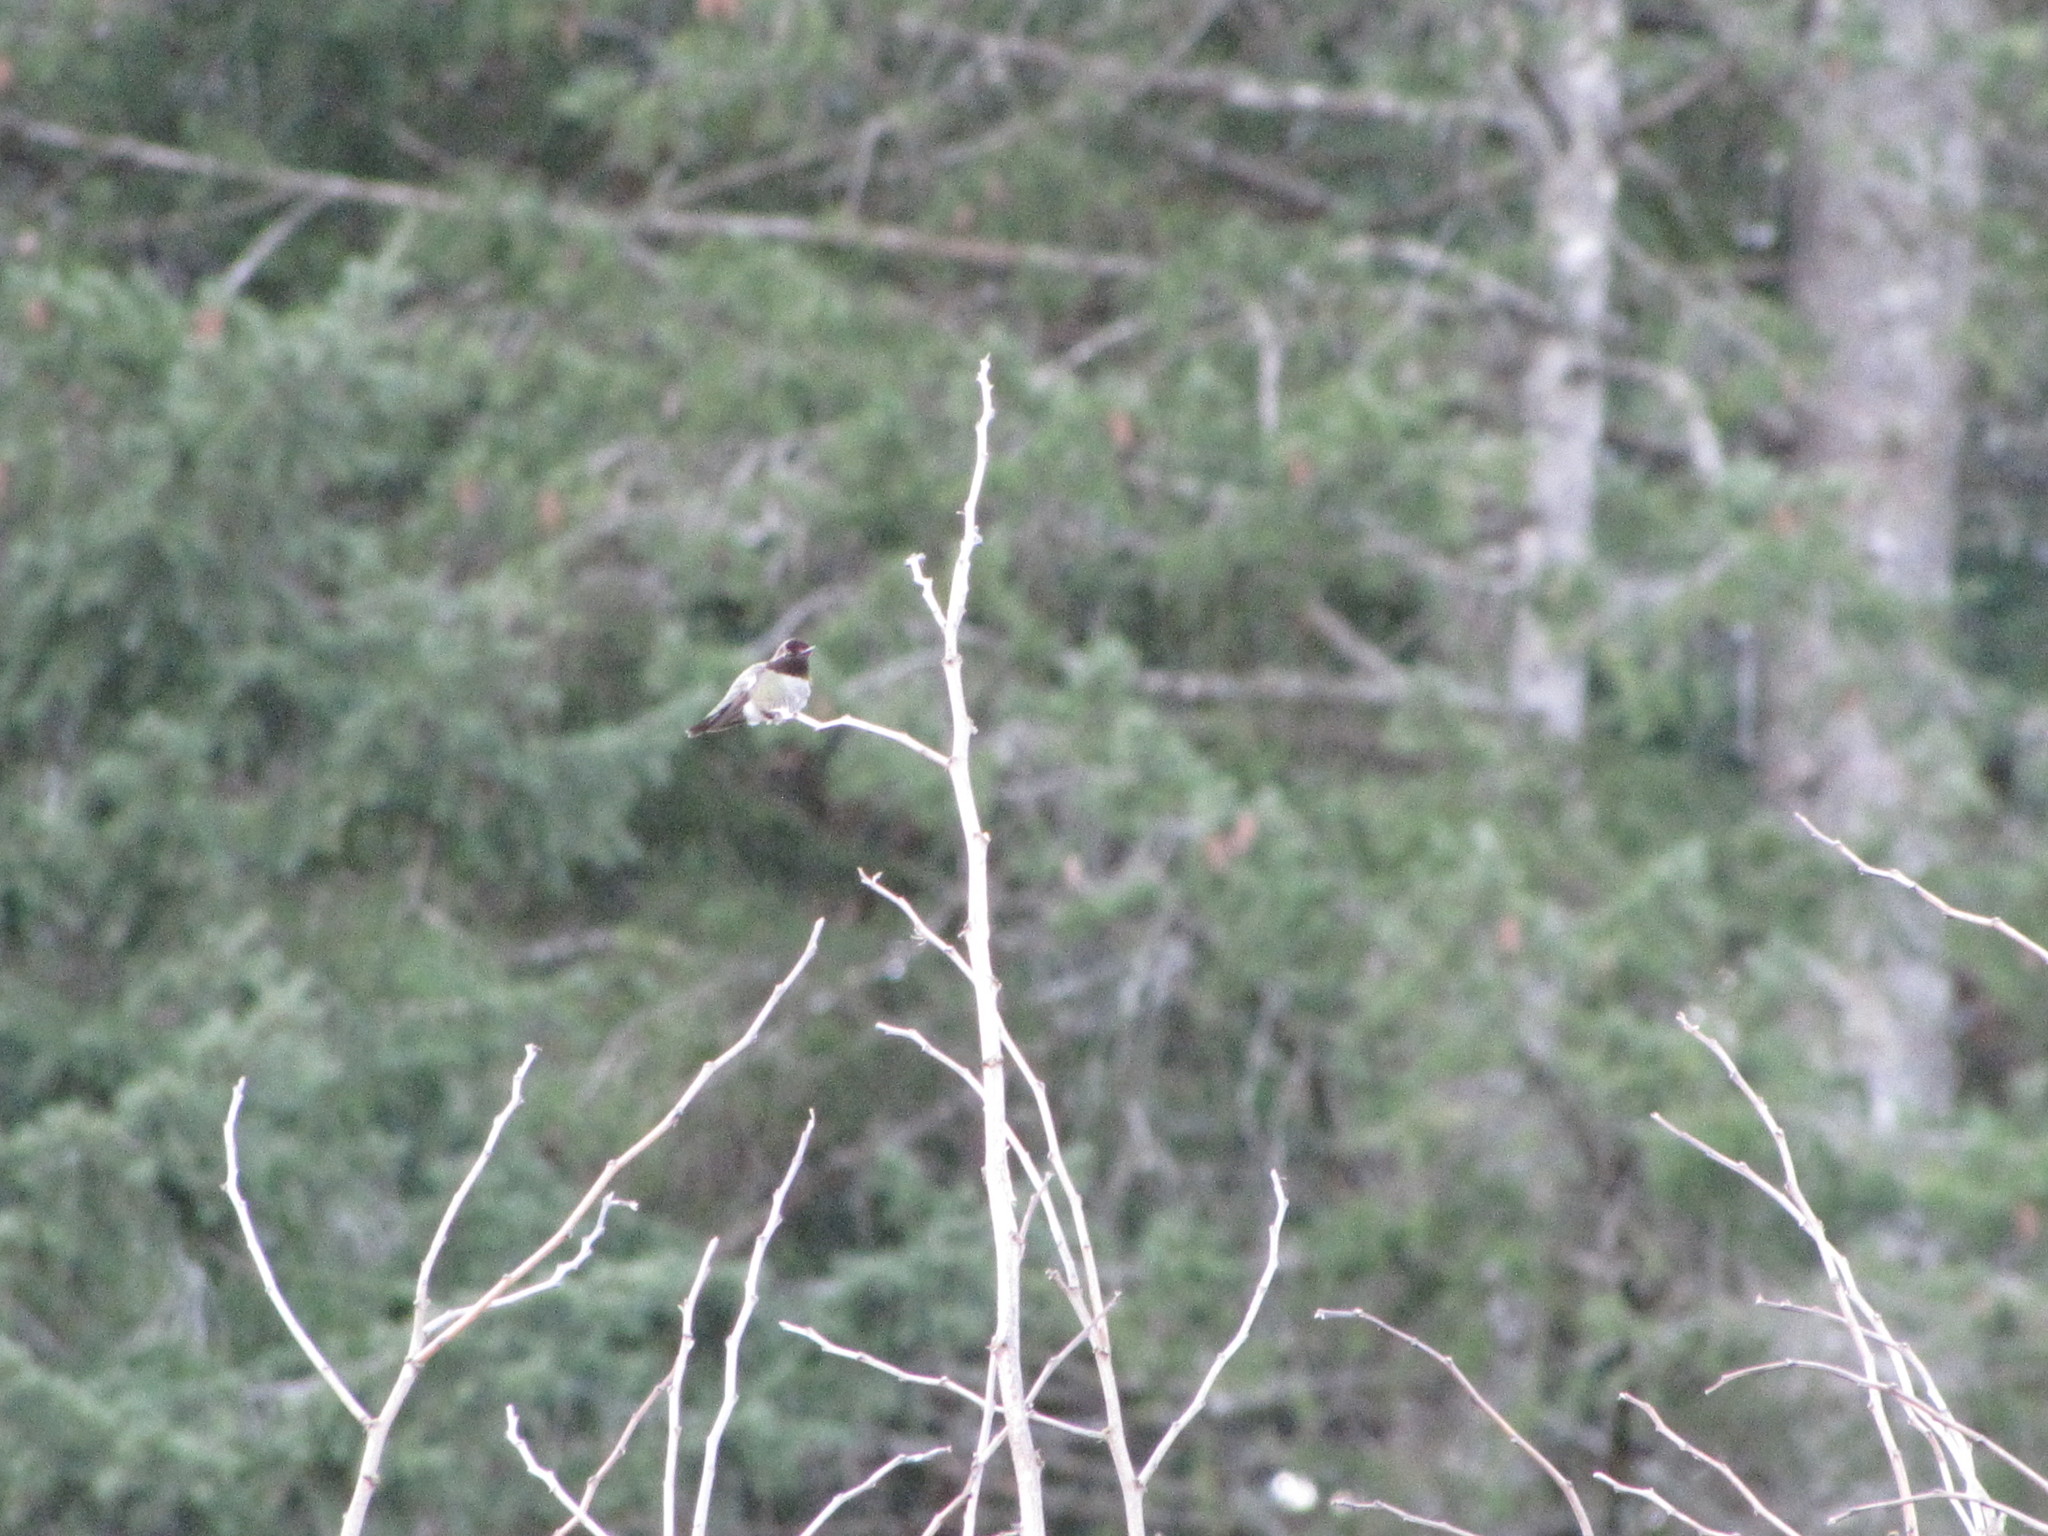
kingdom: Animalia
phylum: Chordata
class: Aves
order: Apodiformes
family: Trochilidae
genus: Calypte
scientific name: Calypte anna
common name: Anna's hummingbird
